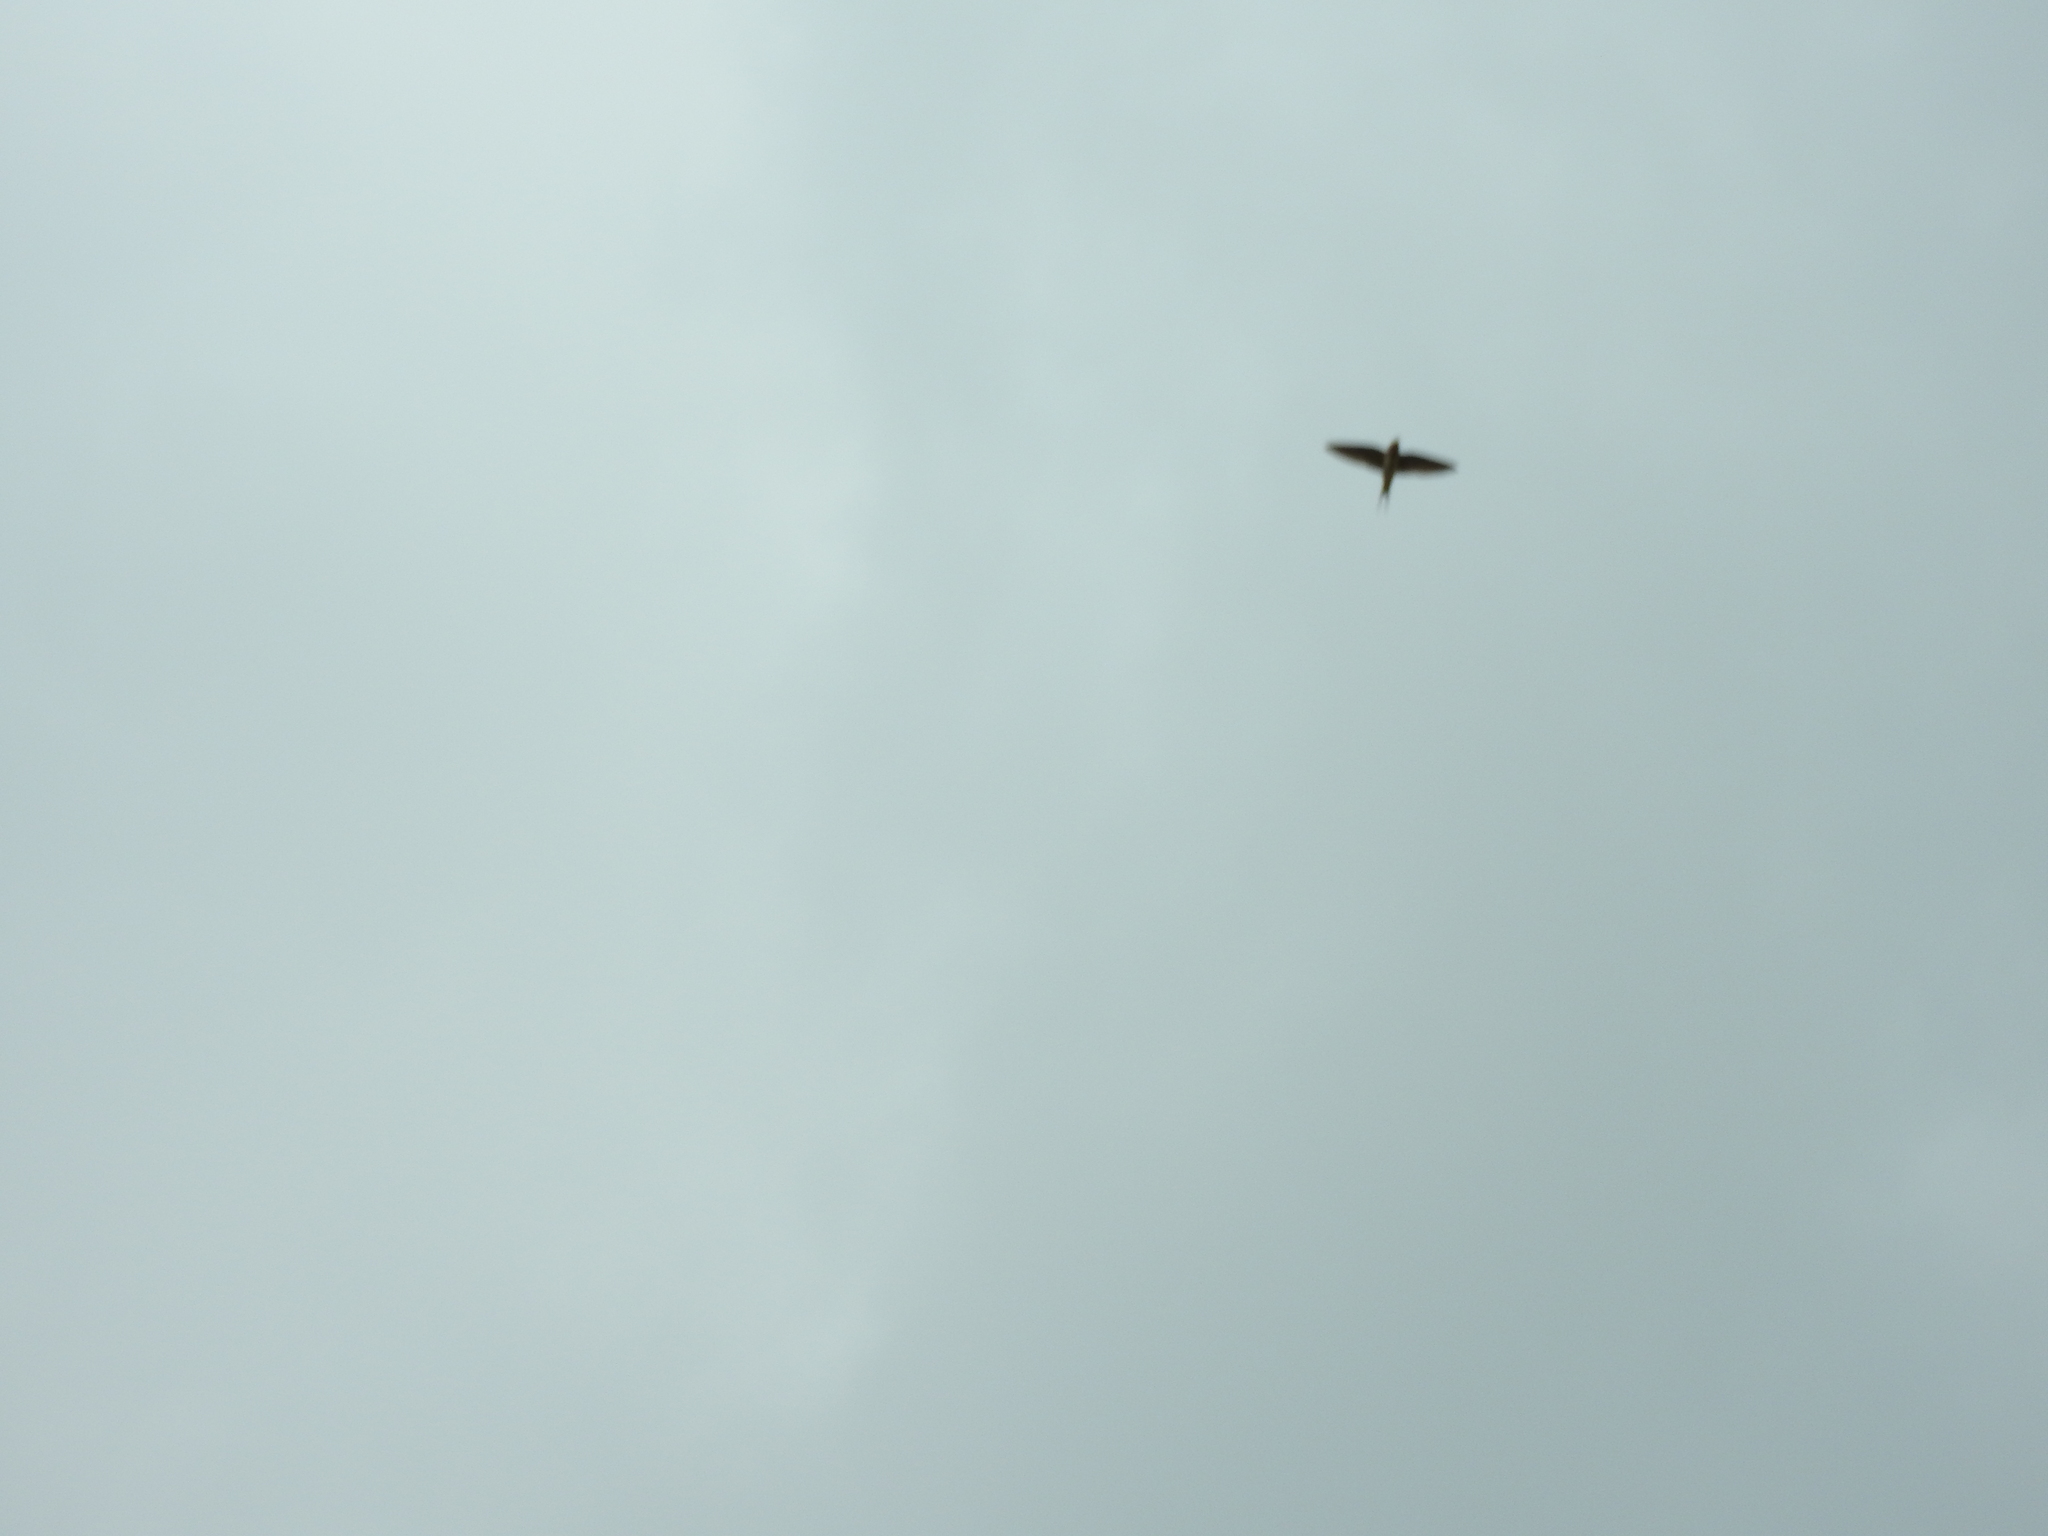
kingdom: Animalia
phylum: Chordata
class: Aves
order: Passeriformes
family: Hirundinidae
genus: Hirundo
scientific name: Hirundo rustica
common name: Barn swallow
